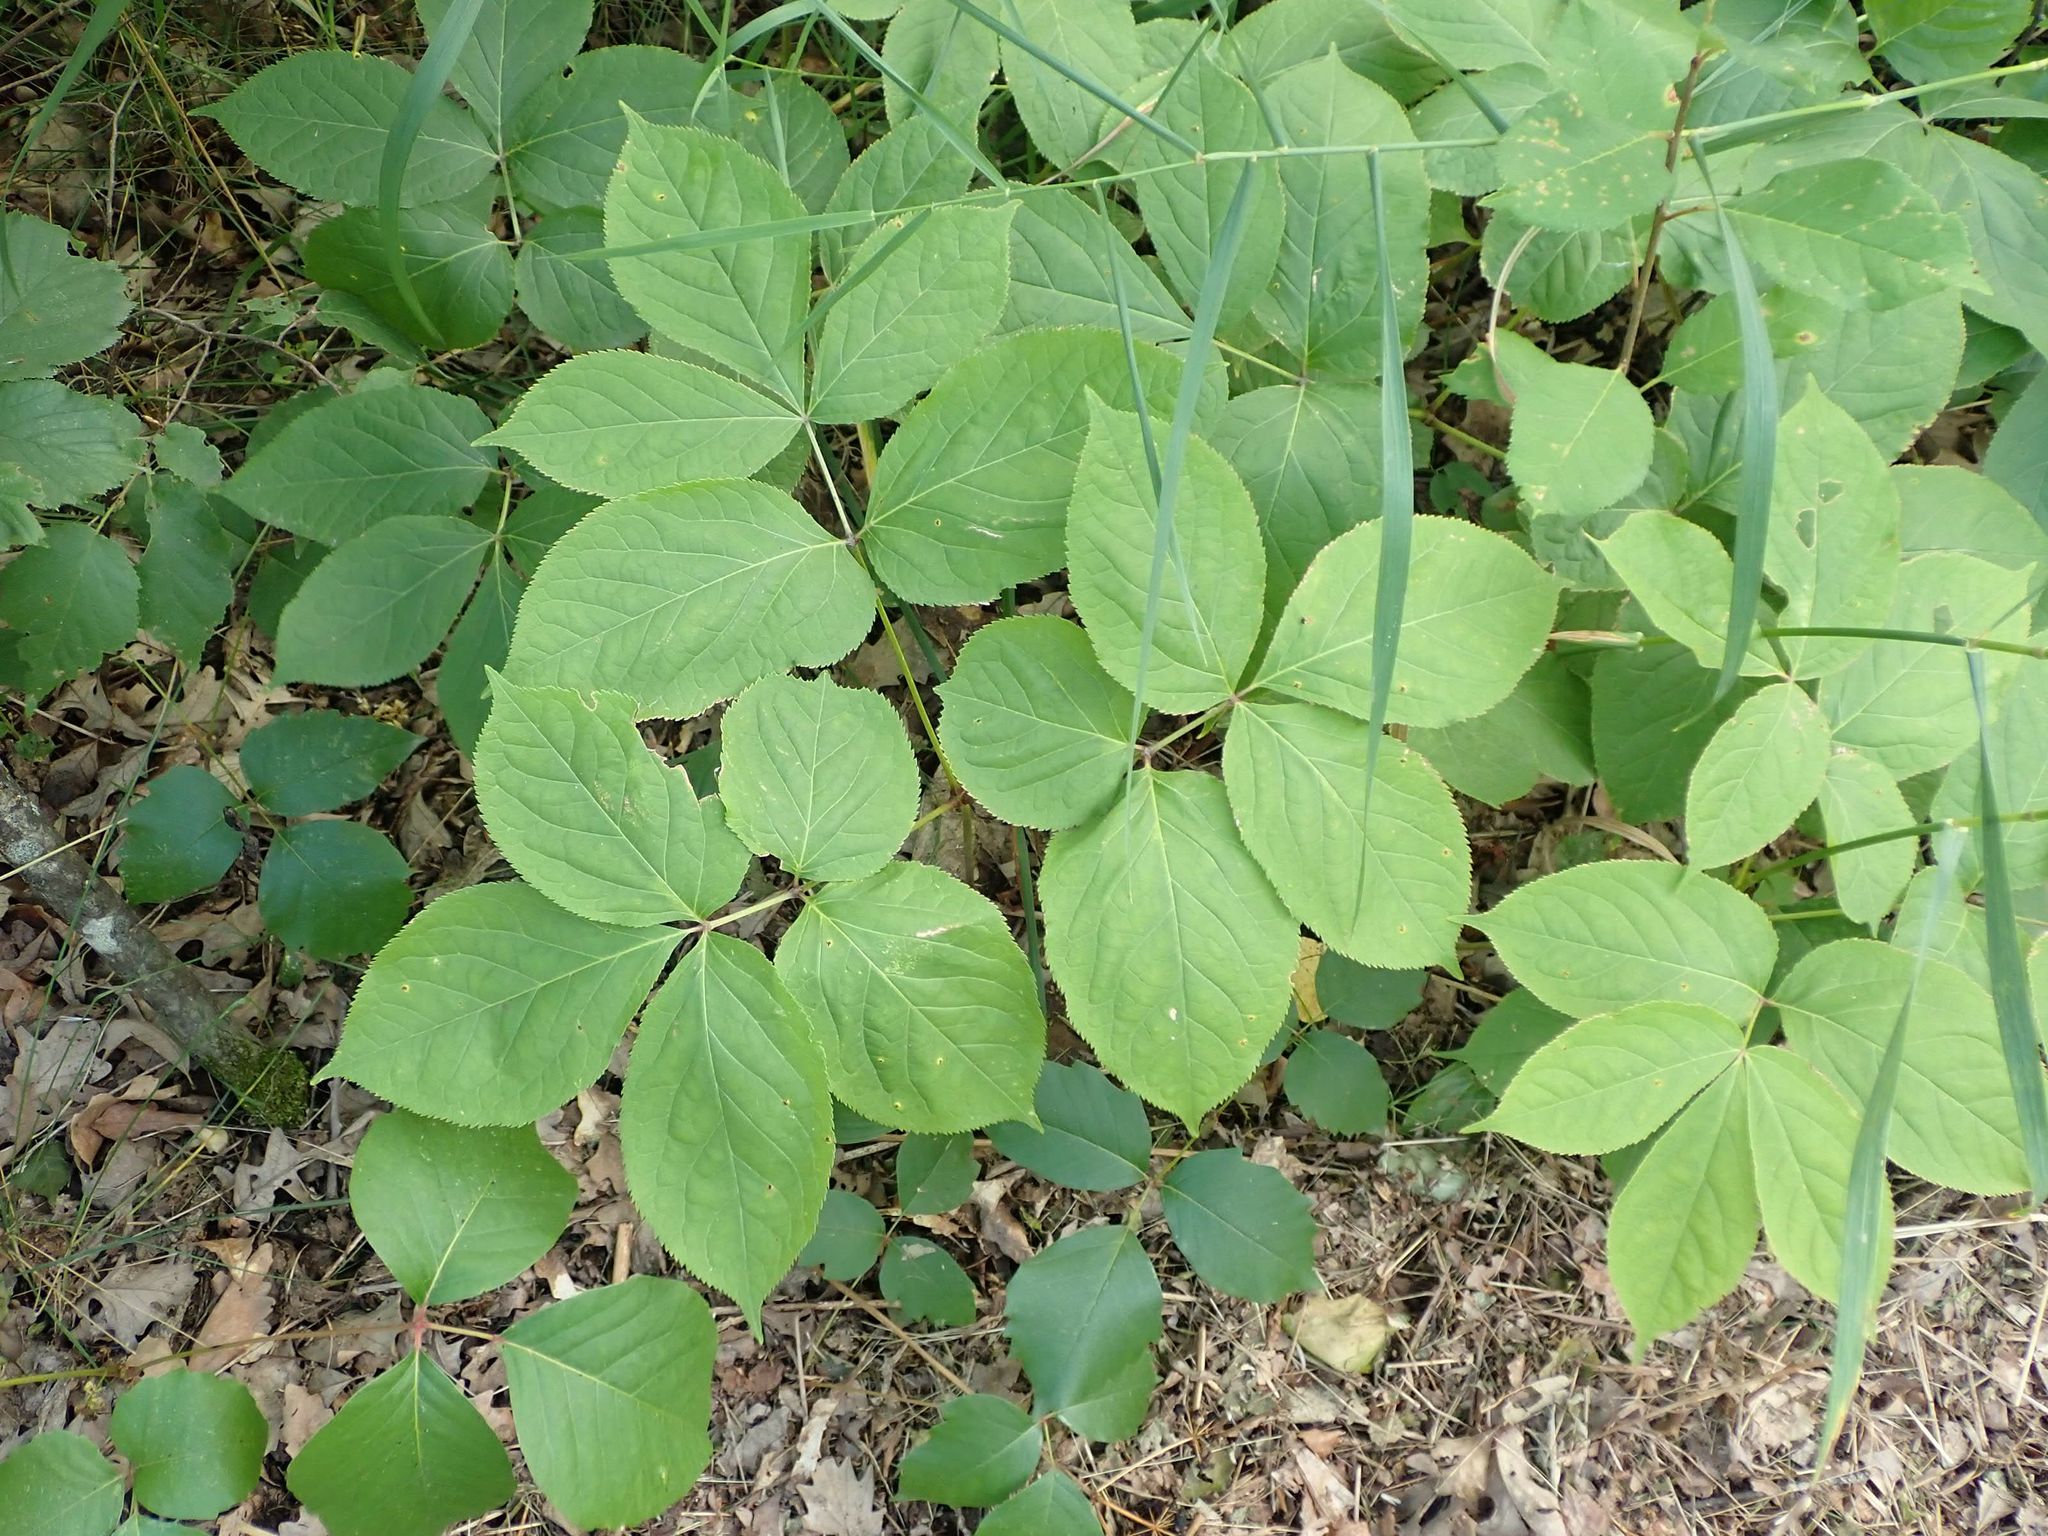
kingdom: Plantae
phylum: Tracheophyta
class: Magnoliopsida
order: Apiales
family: Araliaceae
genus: Aralia
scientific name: Aralia nudicaulis
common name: Wild sarsaparilla
